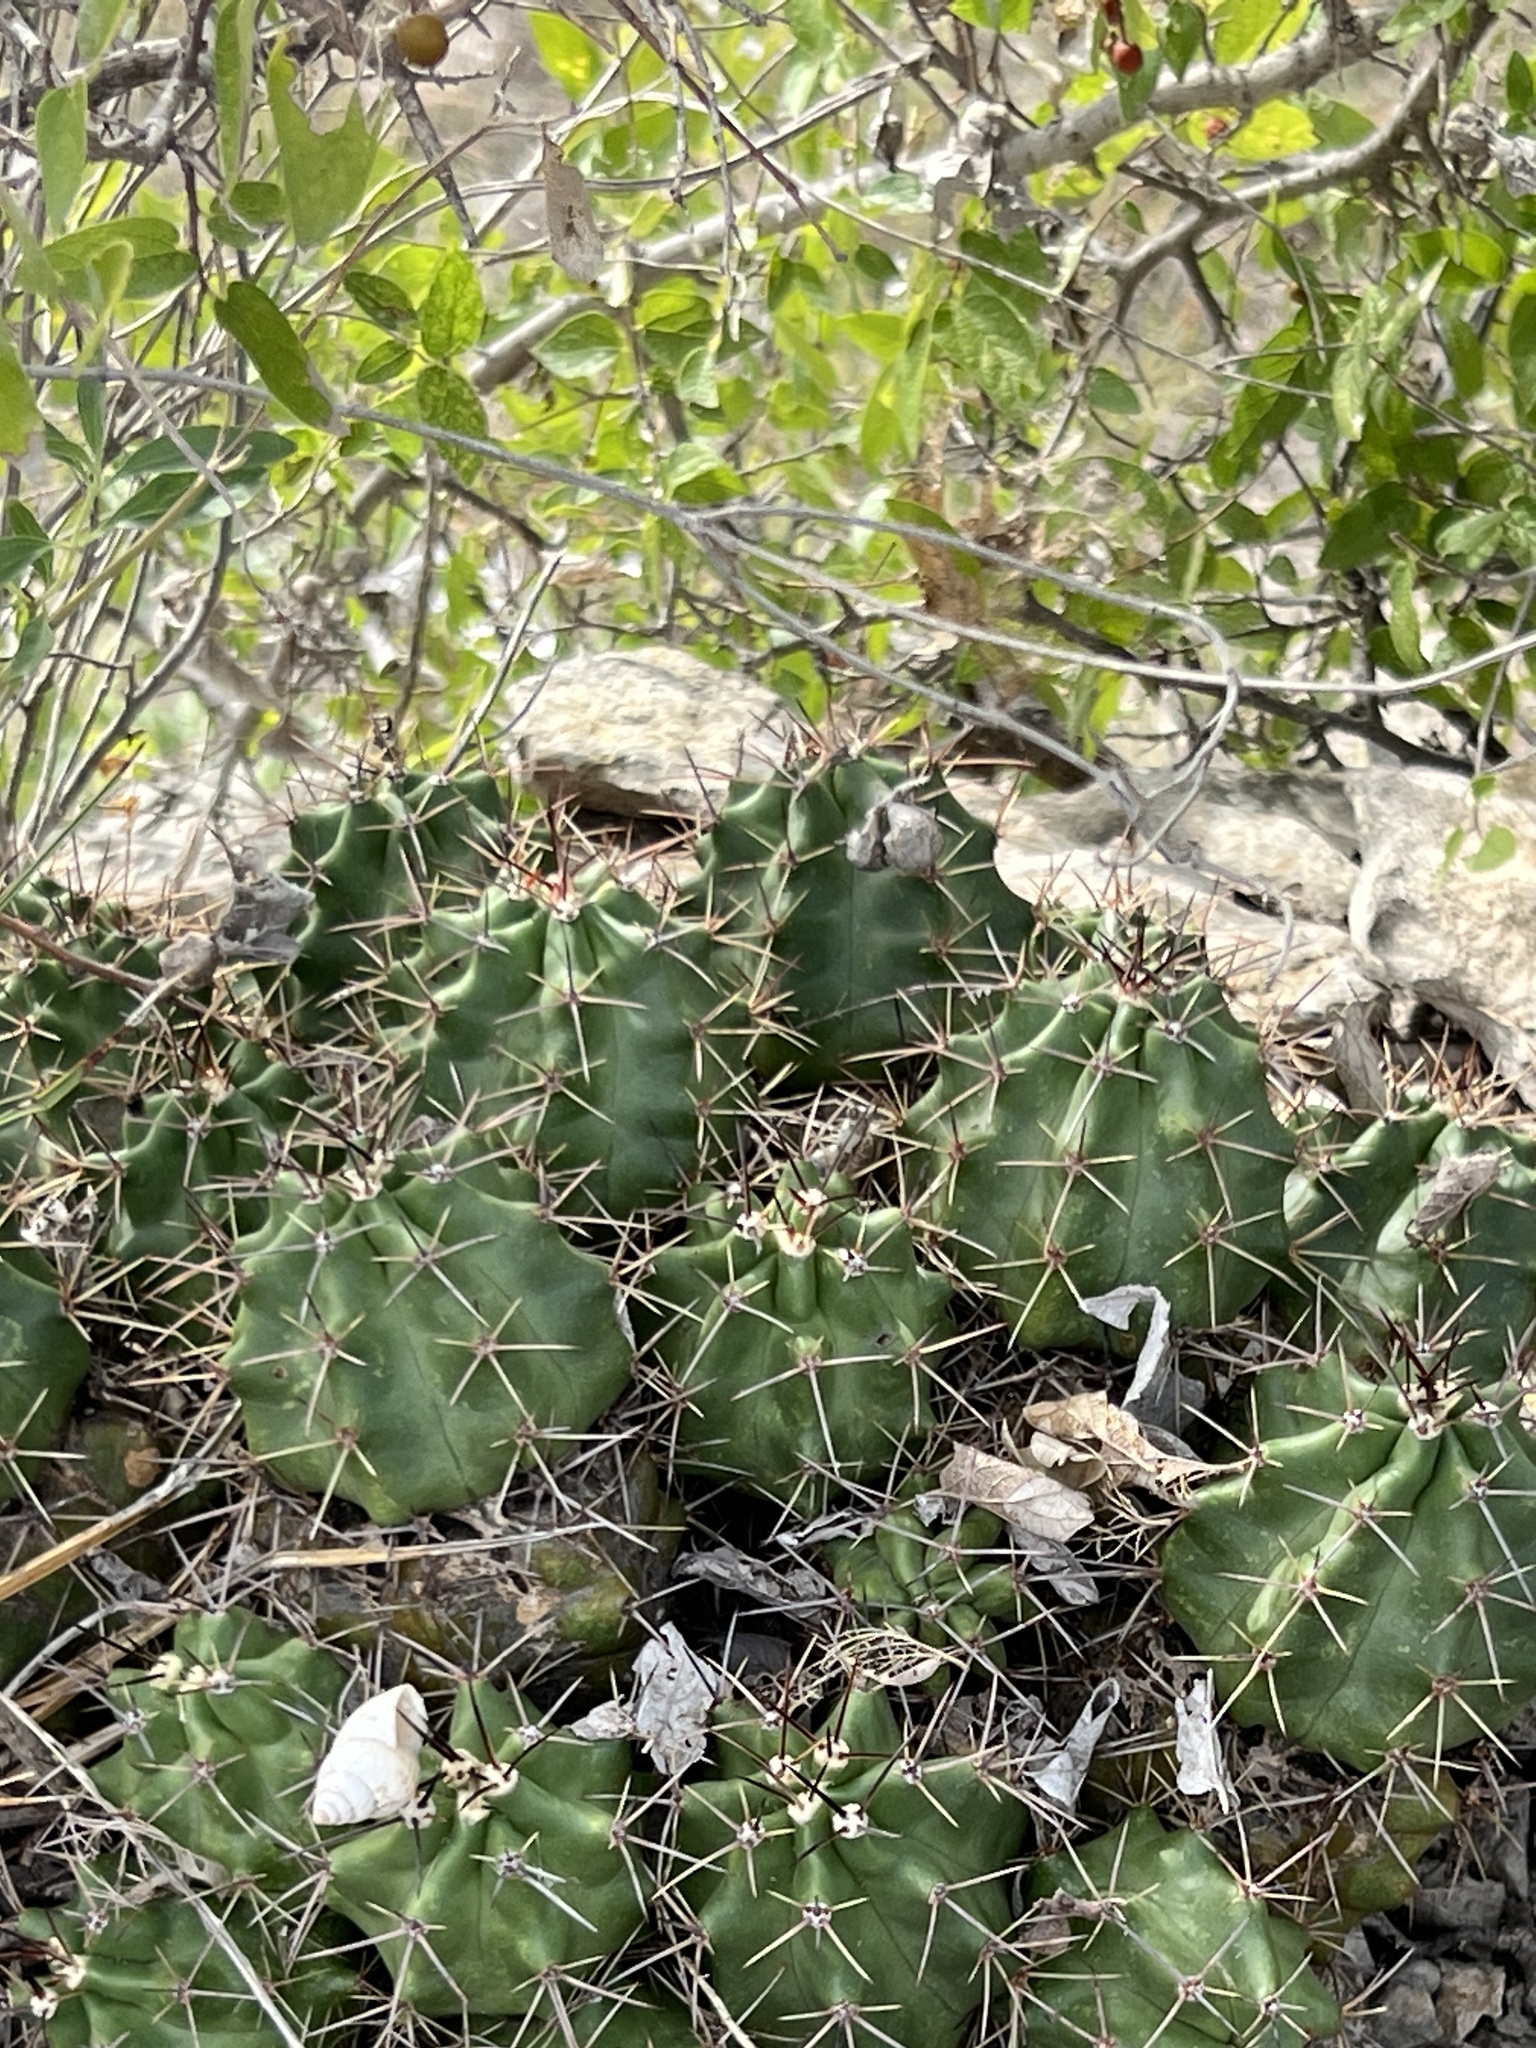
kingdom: Plantae
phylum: Tracheophyta
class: Magnoliopsida
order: Caryophyllales
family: Cactaceae
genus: Echinocereus
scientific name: Echinocereus coccineus
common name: Scarlet hedgehog cactus
